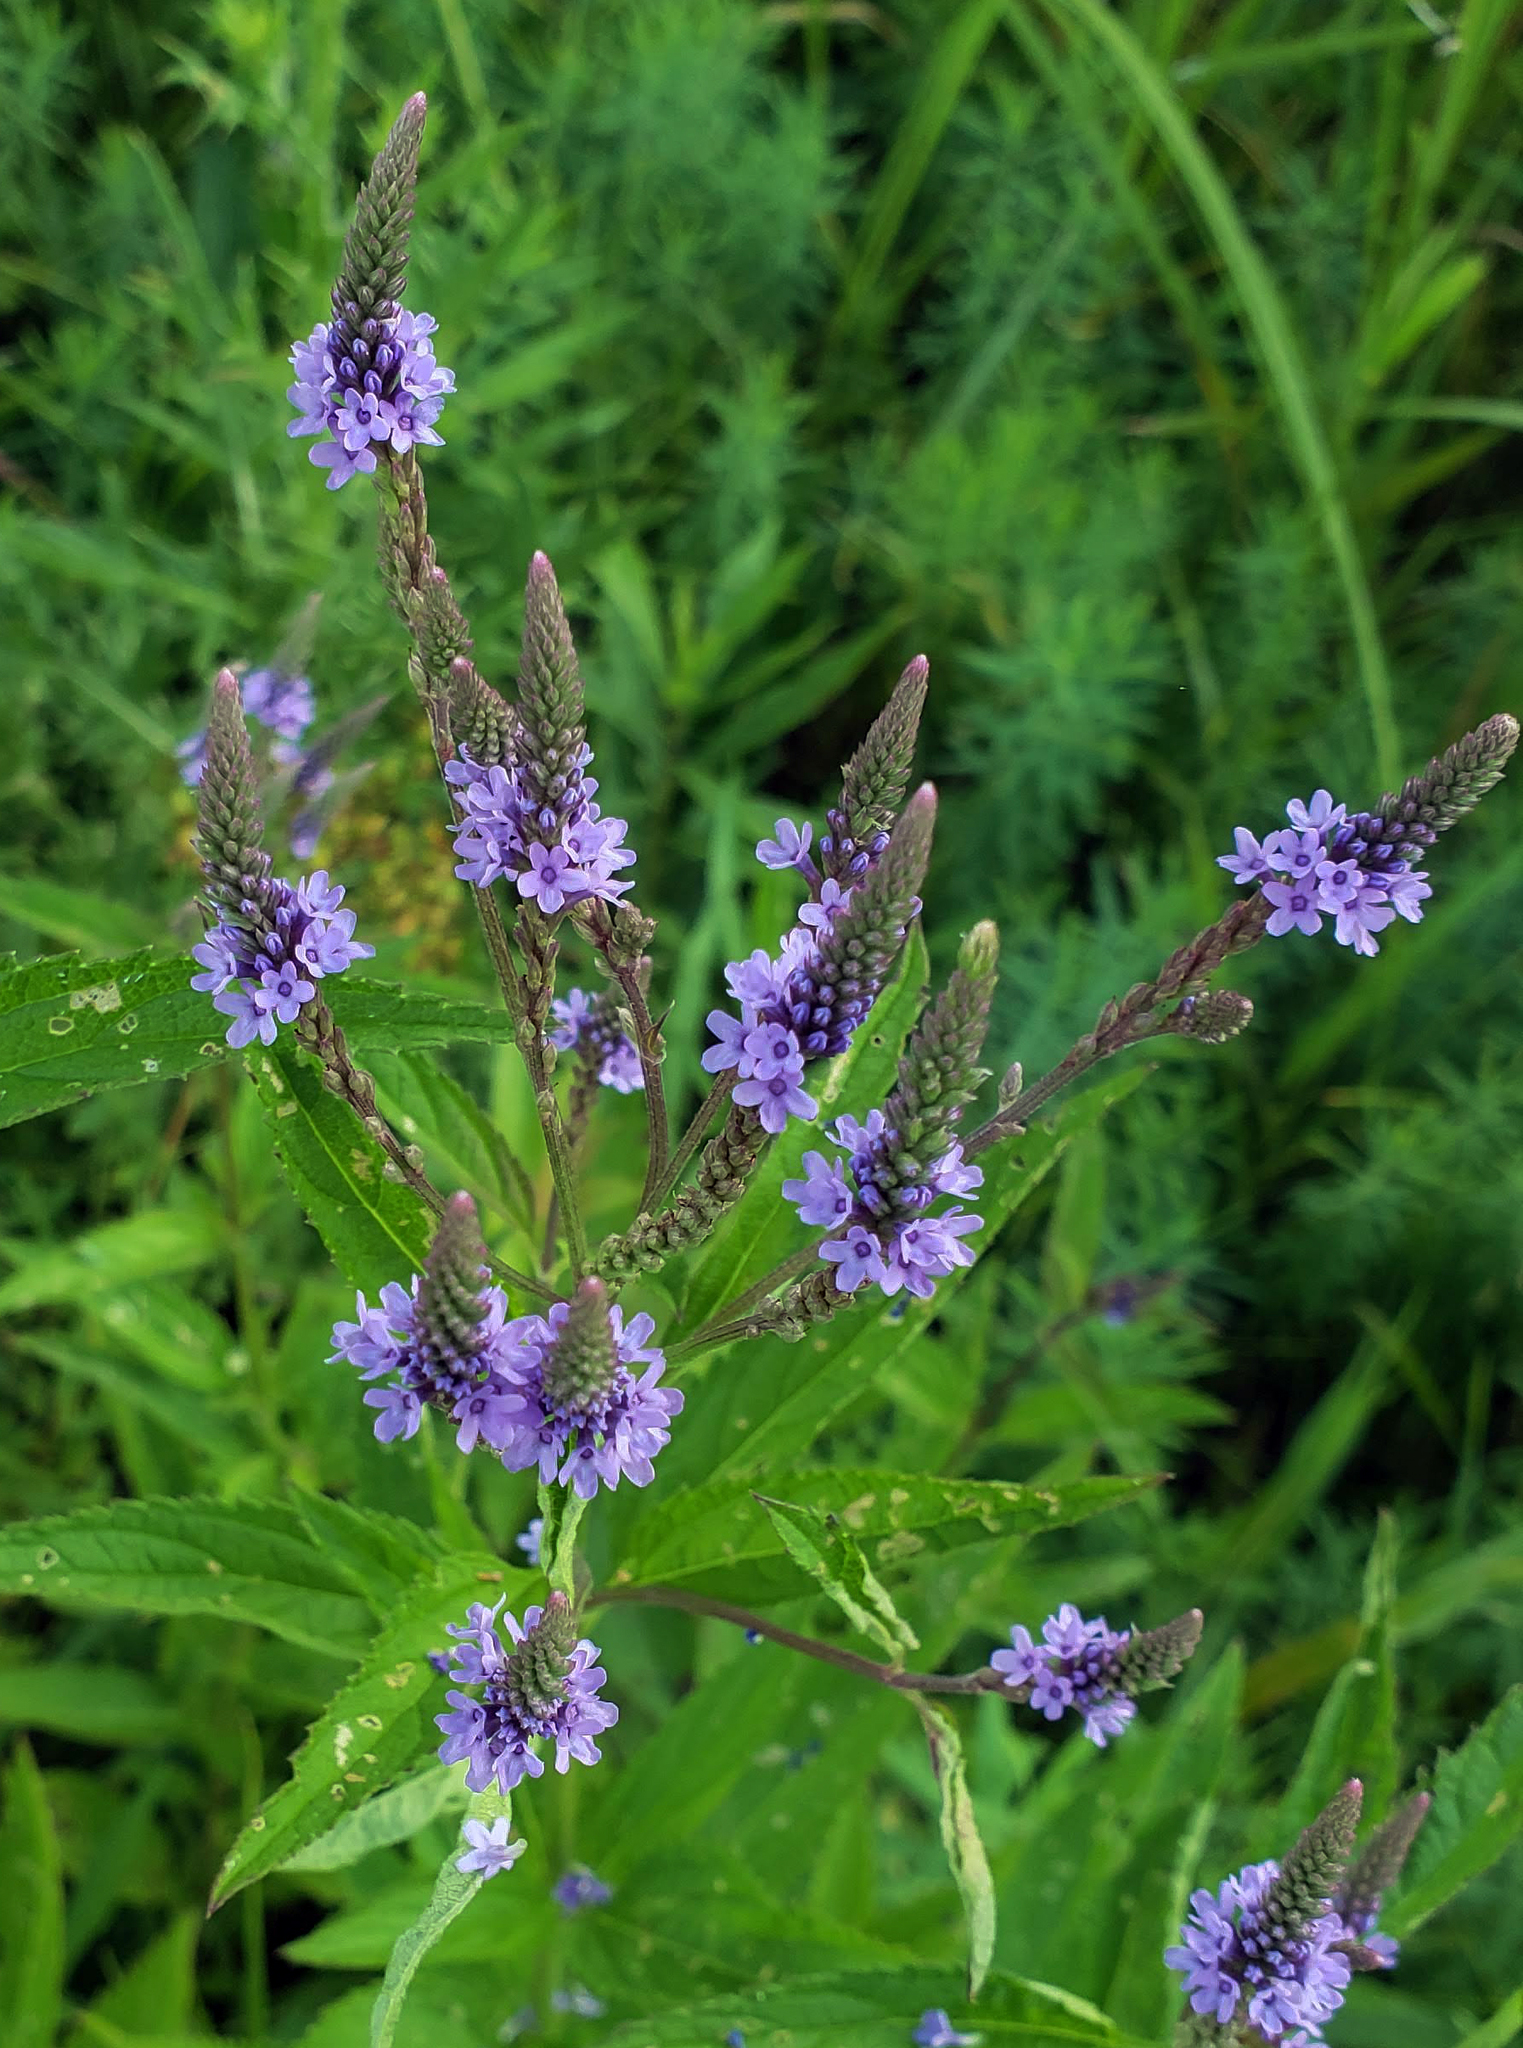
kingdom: Plantae
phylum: Tracheophyta
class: Magnoliopsida
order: Lamiales
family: Verbenaceae
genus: Verbena
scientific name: Verbena hastata
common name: American blue vervain
